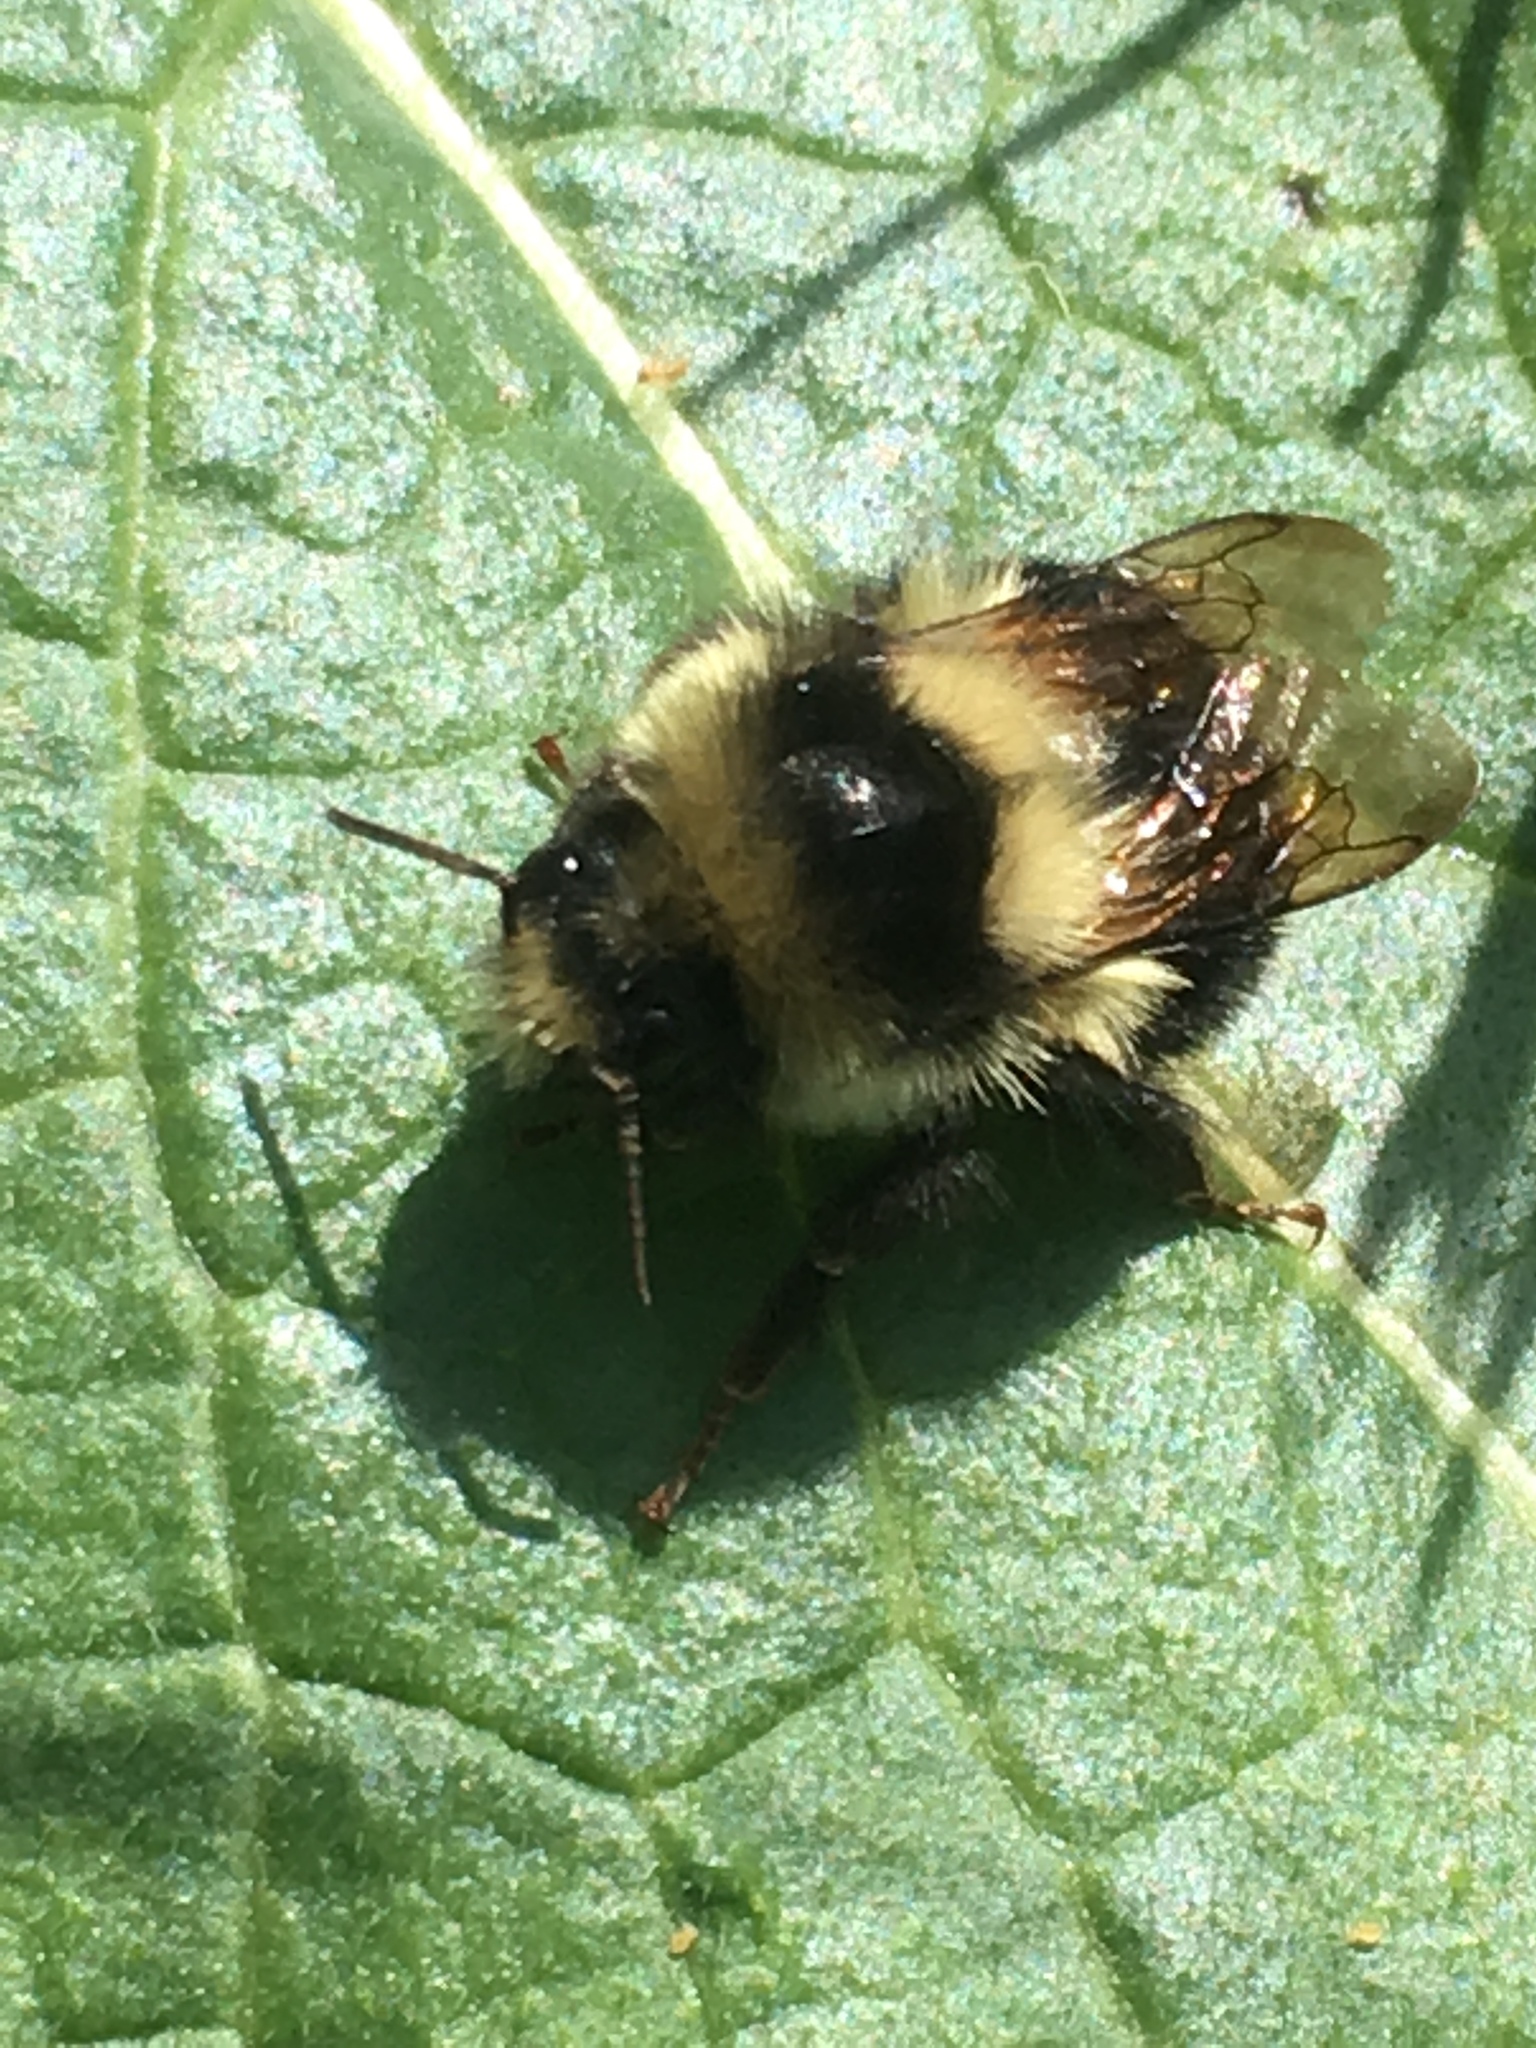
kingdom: Animalia
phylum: Arthropoda
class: Insecta
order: Hymenoptera
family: Apidae
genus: Bombus
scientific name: Bombus melanopygus
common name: Black tail bumble bee
